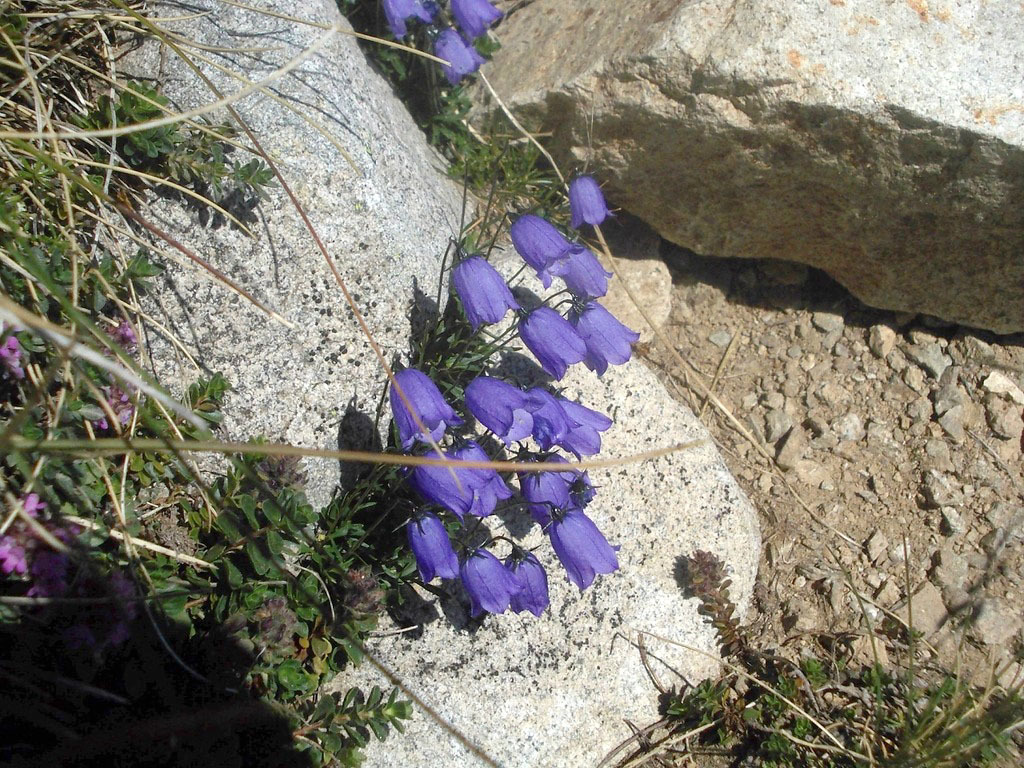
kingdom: Plantae
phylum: Tracheophyta
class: Magnoliopsida
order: Asterales
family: Campanulaceae
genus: Campanula
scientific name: Campanula cochleariifolia
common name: Fairies'-thimbles
